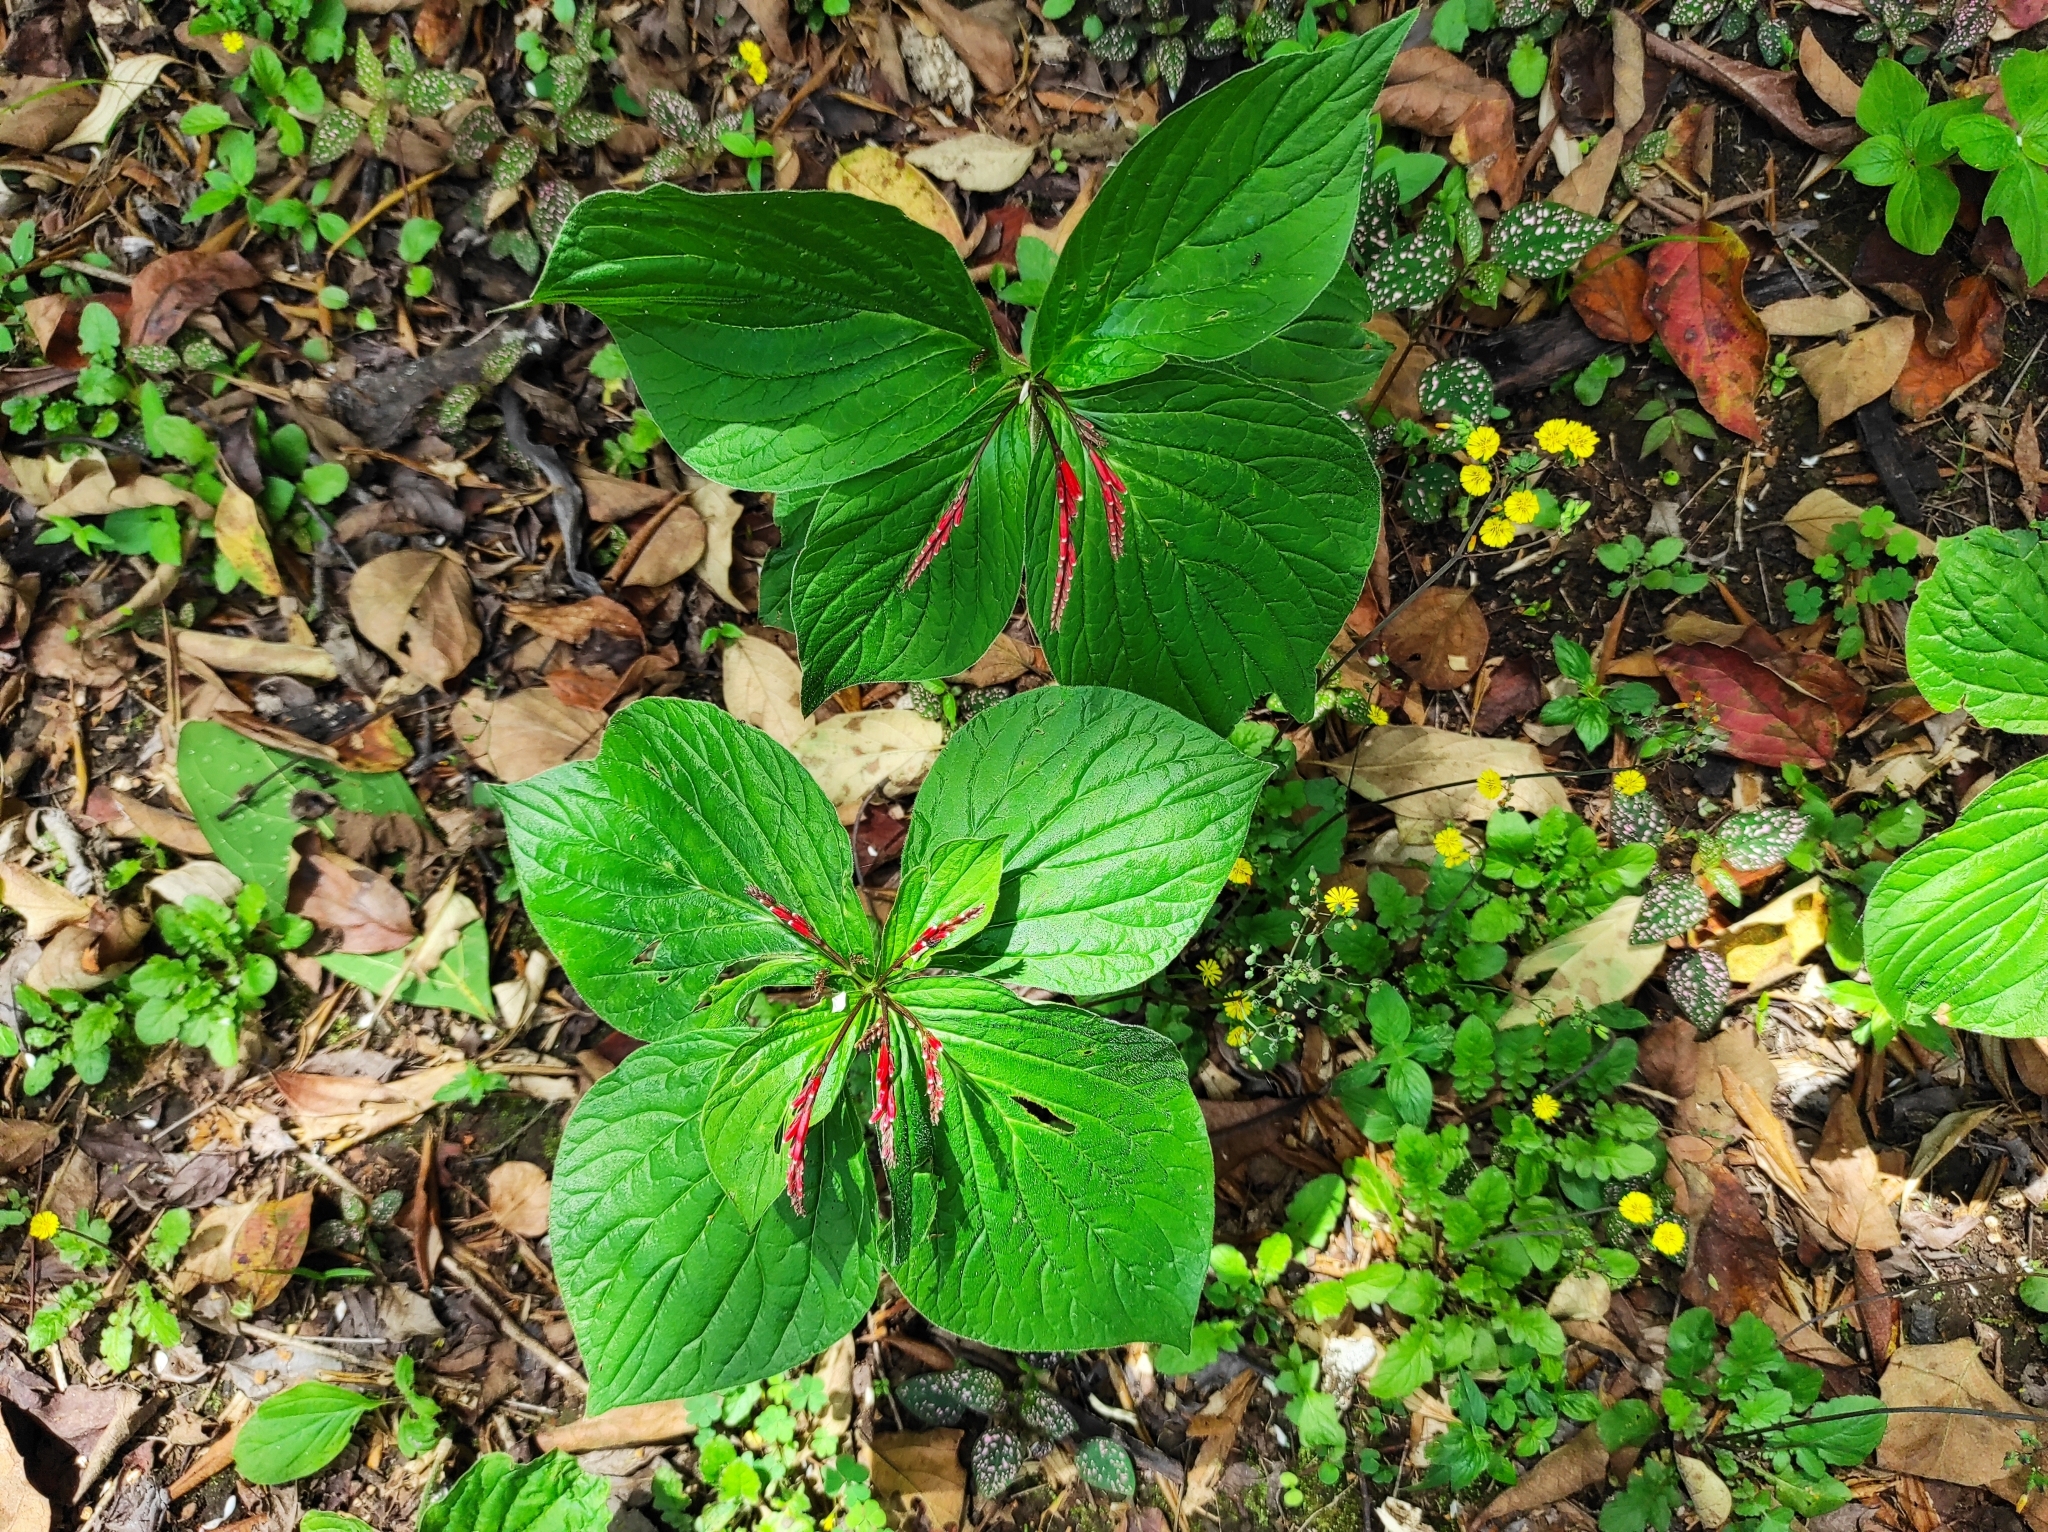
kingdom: Plantae
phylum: Tracheophyta
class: Magnoliopsida
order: Gentianales
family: Loganiaceae
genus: Spigelia
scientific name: Spigelia splendens
